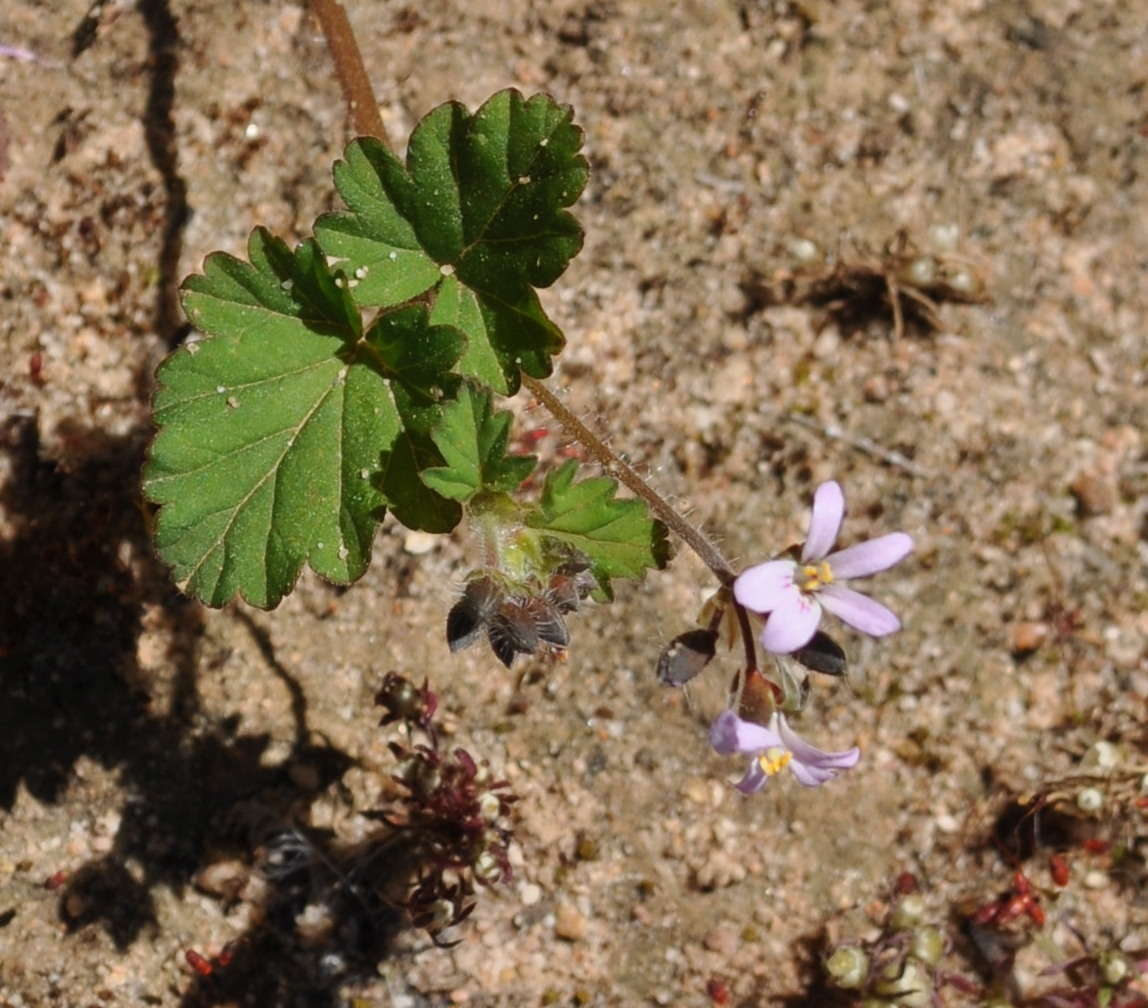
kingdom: Plantae
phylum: Tracheophyta
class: Magnoliopsida
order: Geraniales
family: Geraniaceae
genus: Pelargonium
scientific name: Pelargonium australe
